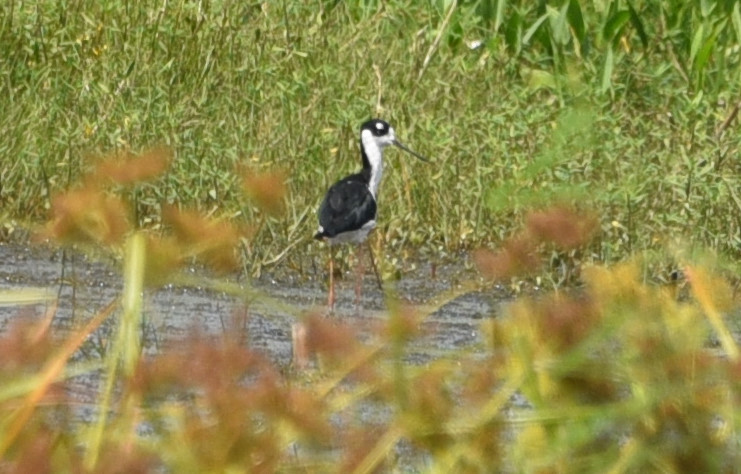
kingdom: Animalia
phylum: Chordata
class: Aves
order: Charadriiformes
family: Recurvirostridae
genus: Himantopus
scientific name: Himantopus mexicanus
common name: Black-necked stilt
